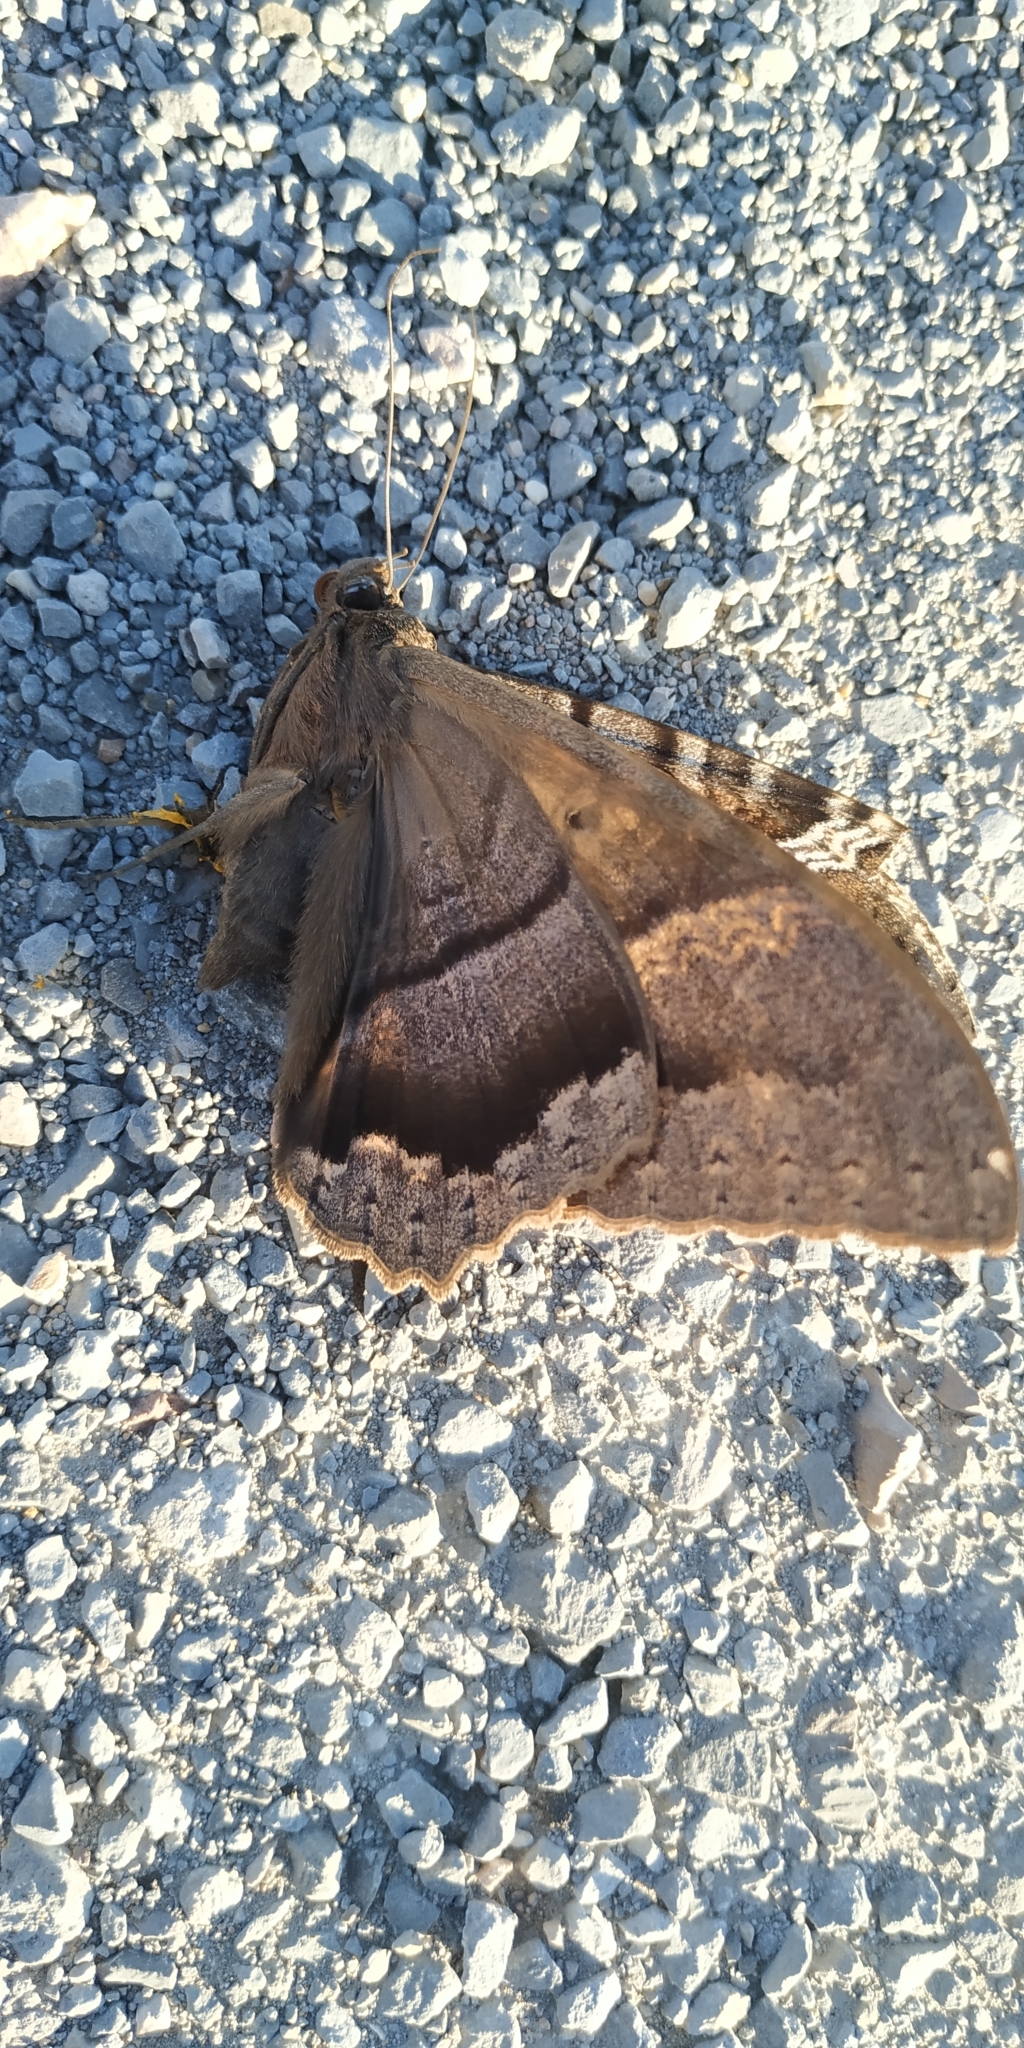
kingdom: Animalia
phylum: Arthropoda
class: Insecta
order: Lepidoptera
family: Erebidae
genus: Ascalapha
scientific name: Ascalapha odorata
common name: Black witch
